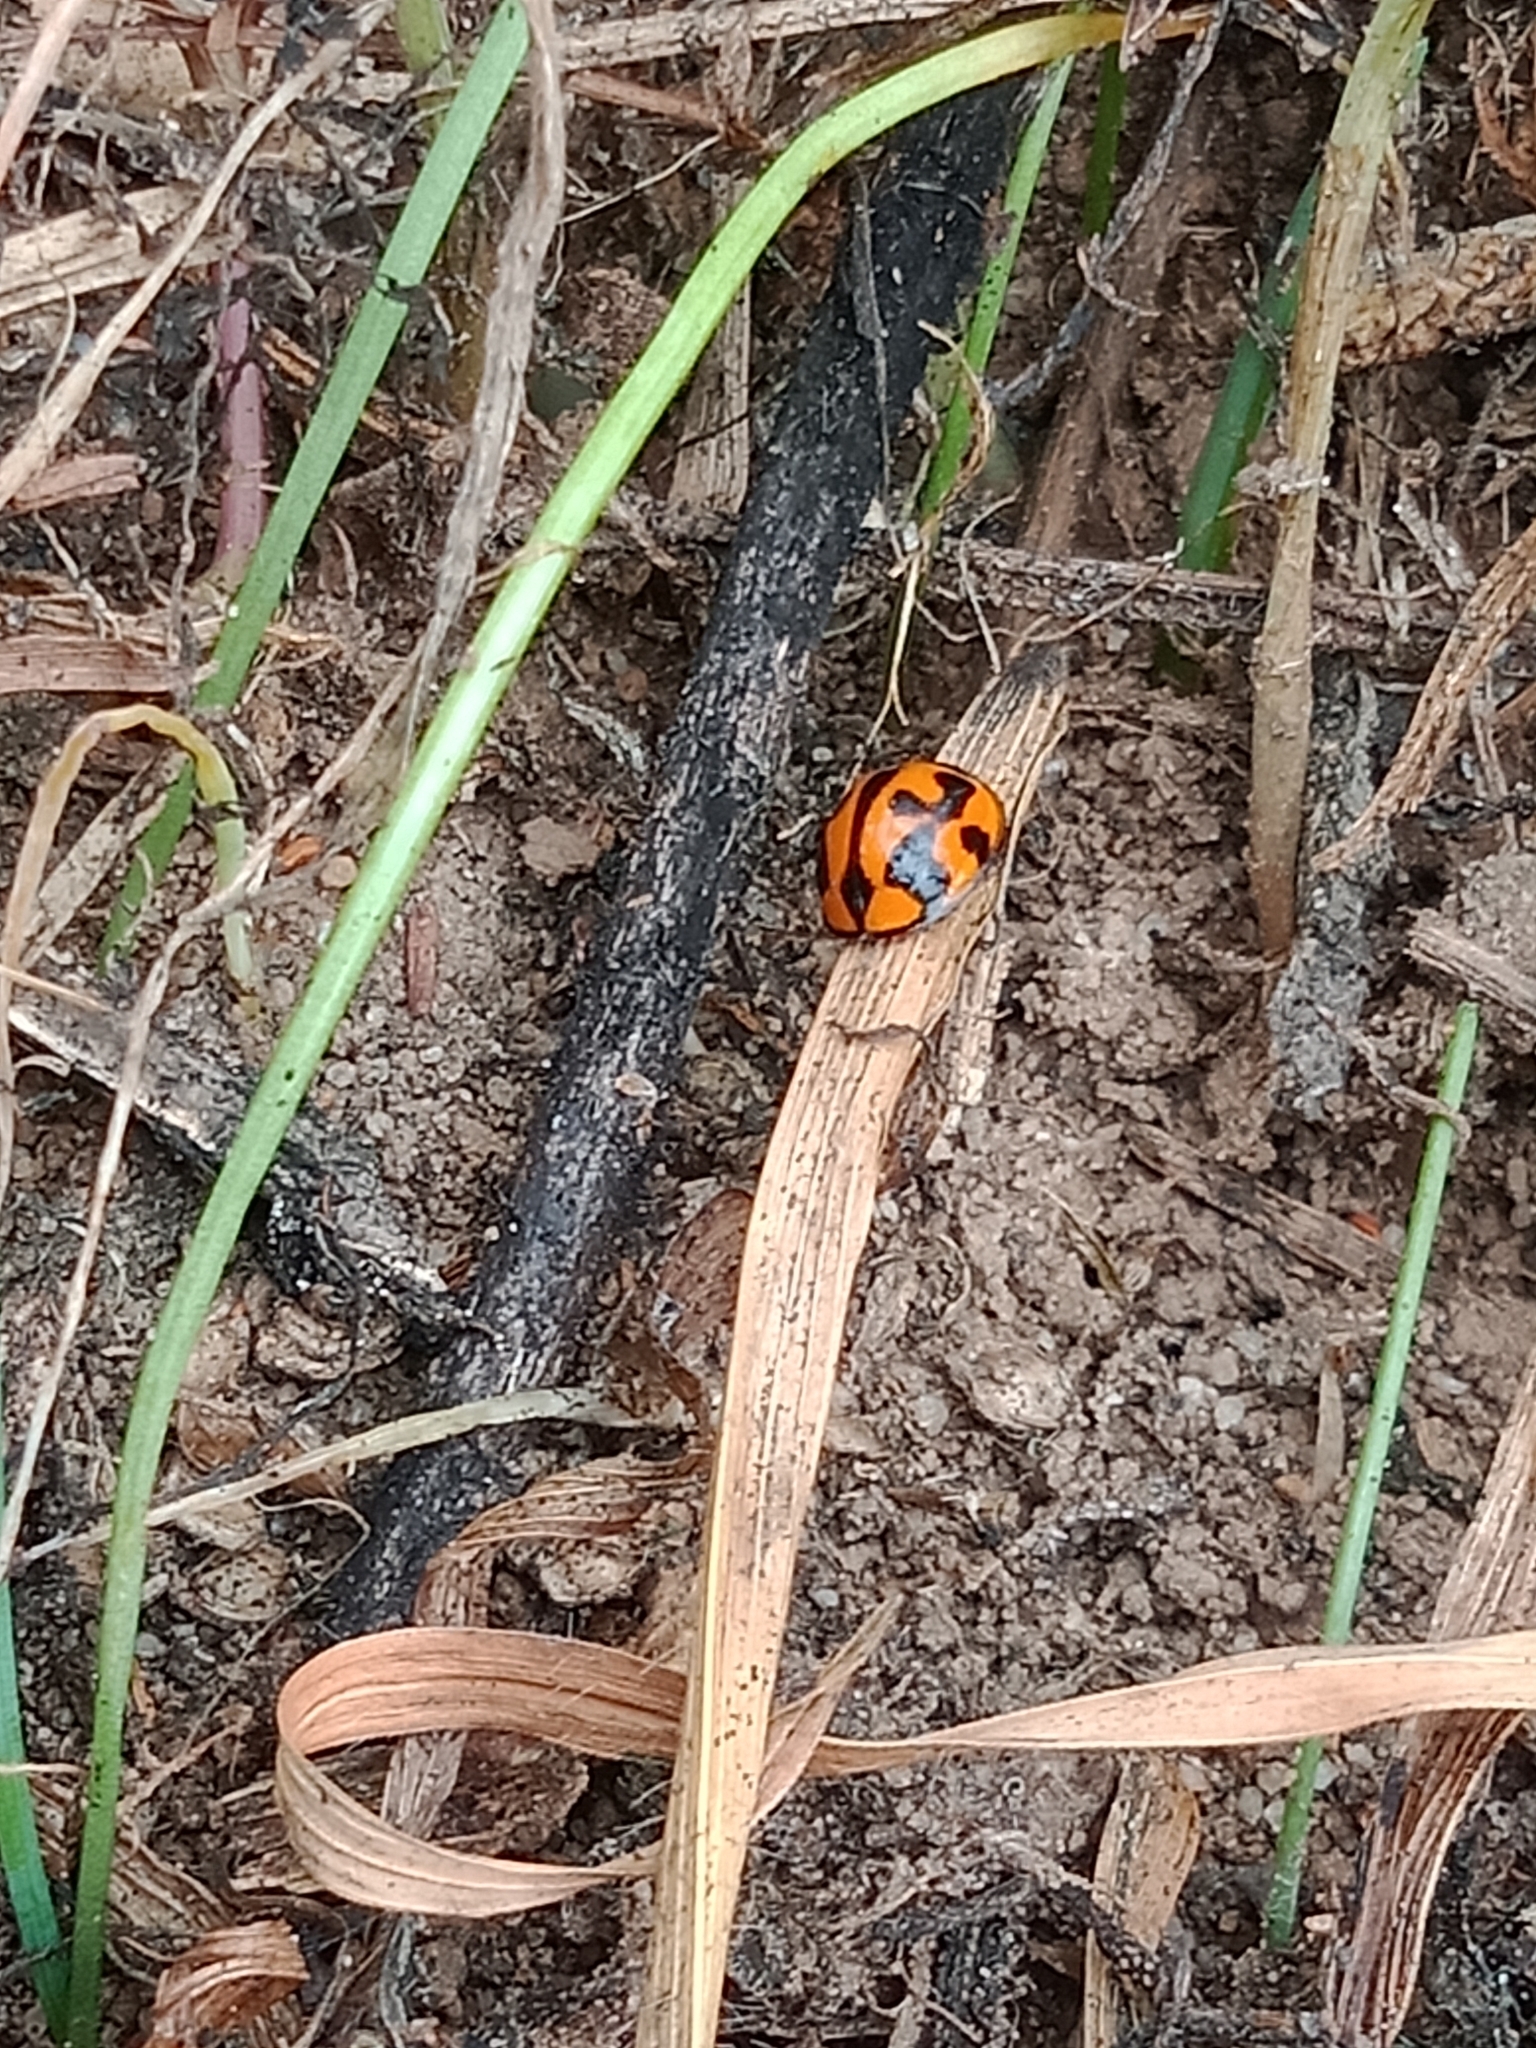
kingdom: Animalia
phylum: Arthropoda
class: Insecta
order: Coleoptera
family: Coccinellidae
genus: Coelophora
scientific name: Coelophora inaequalis
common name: Common australian lady beetle
